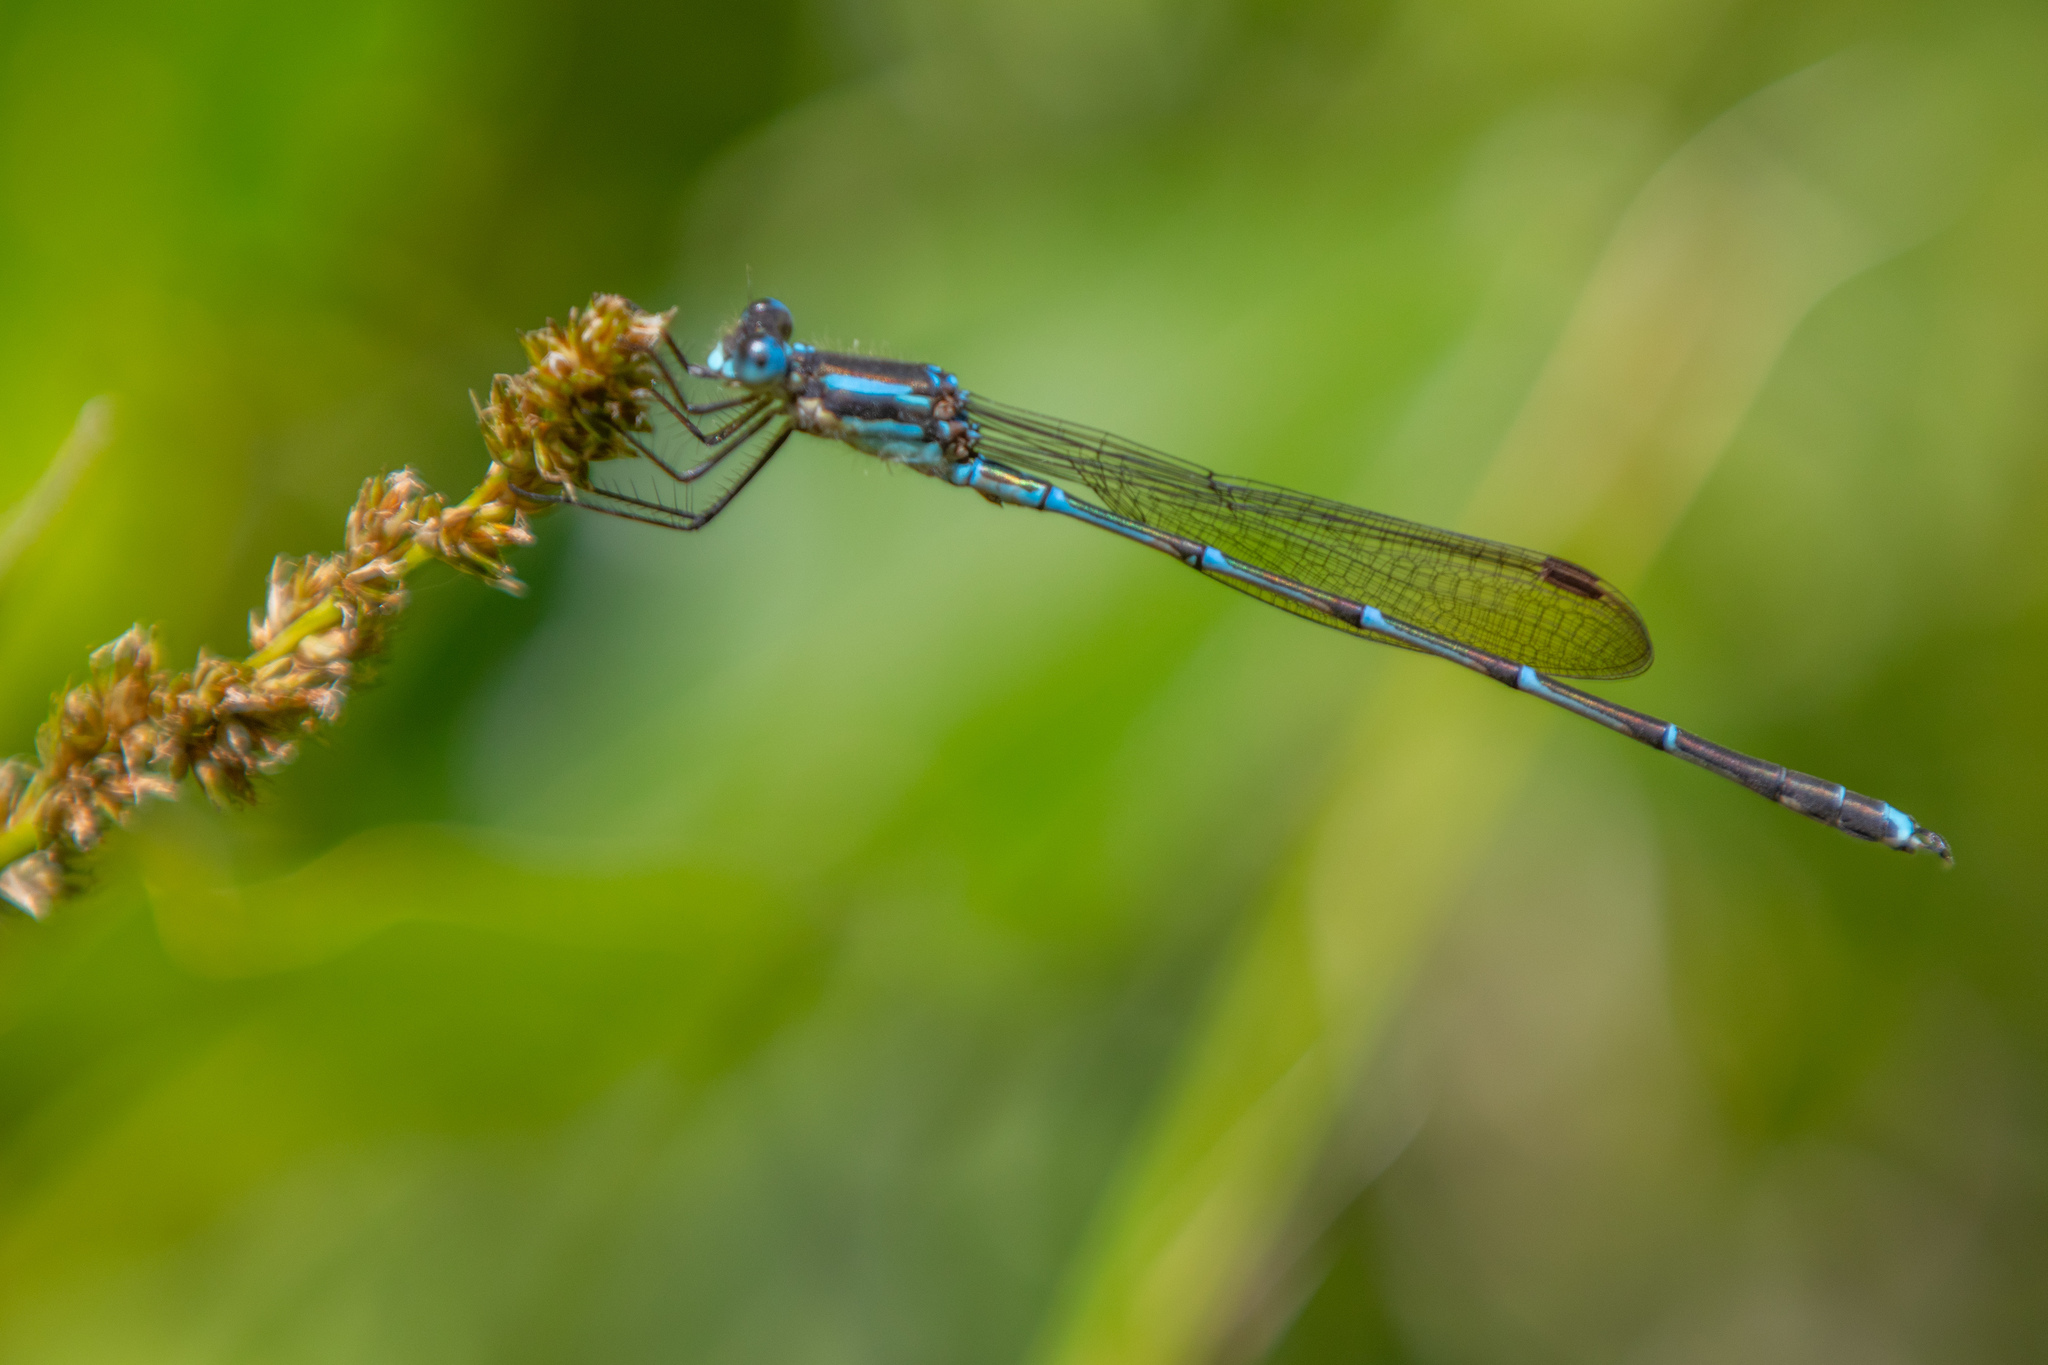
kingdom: Animalia
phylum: Arthropoda
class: Insecta
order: Odonata
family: Lestidae
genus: Austrolestes
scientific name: Austrolestes colensonis
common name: Blue damselfly
